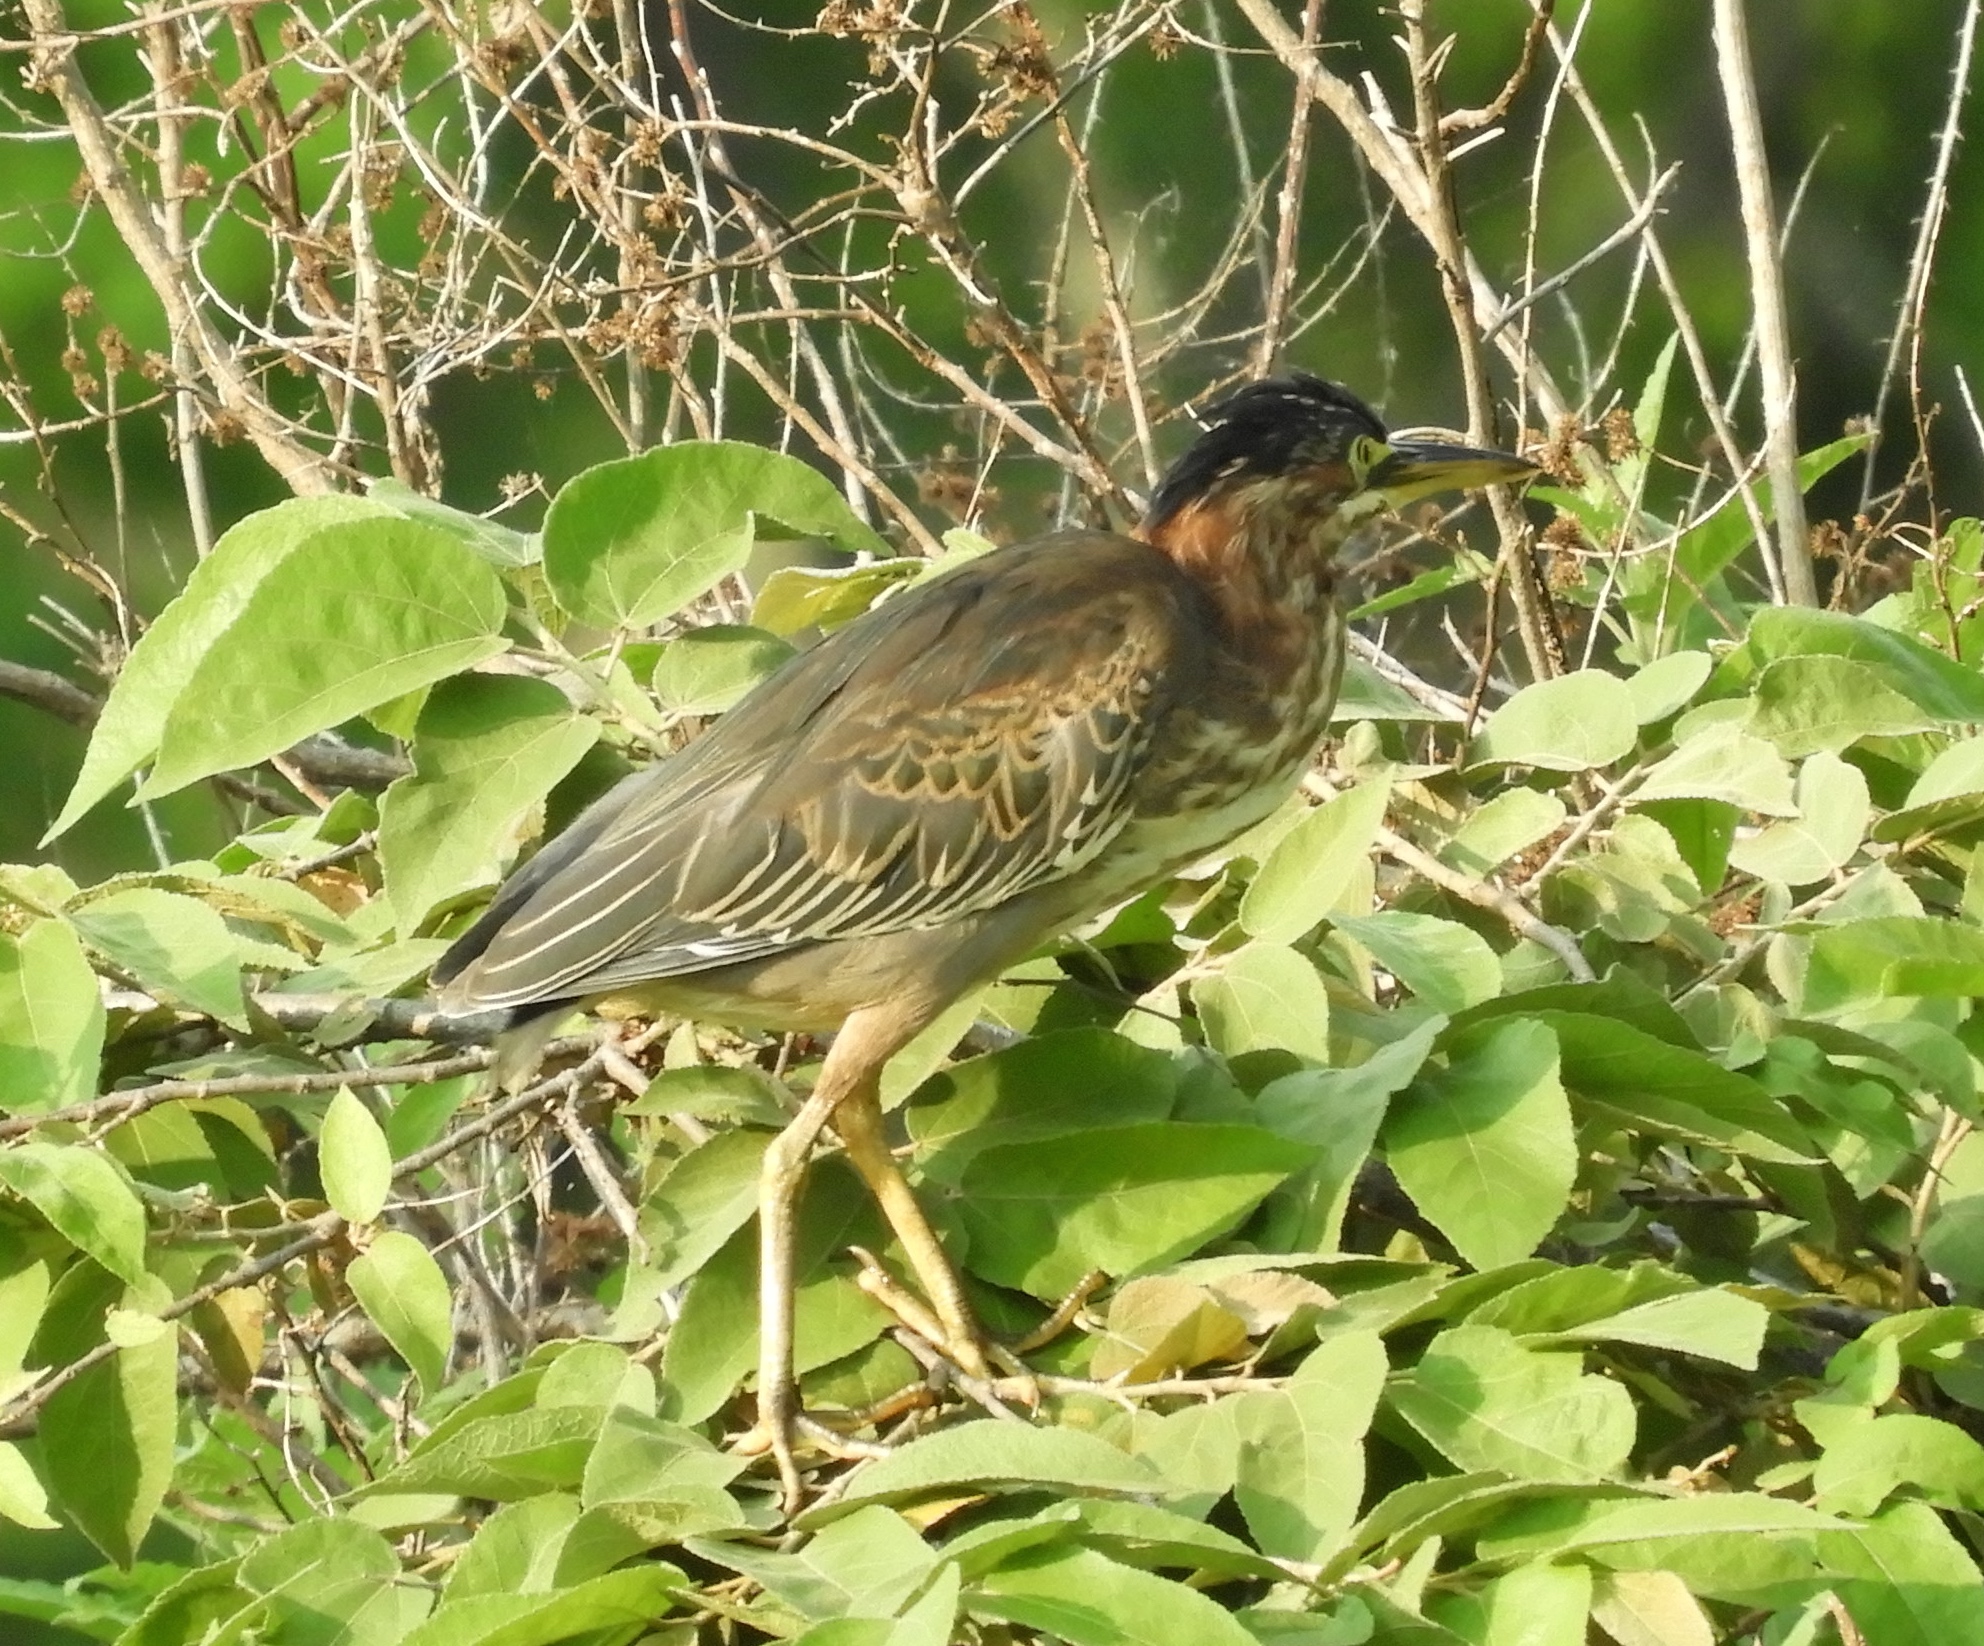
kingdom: Animalia
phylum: Chordata
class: Aves
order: Pelecaniformes
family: Ardeidae
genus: Butorides
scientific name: Butorides virescens
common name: Green heron
